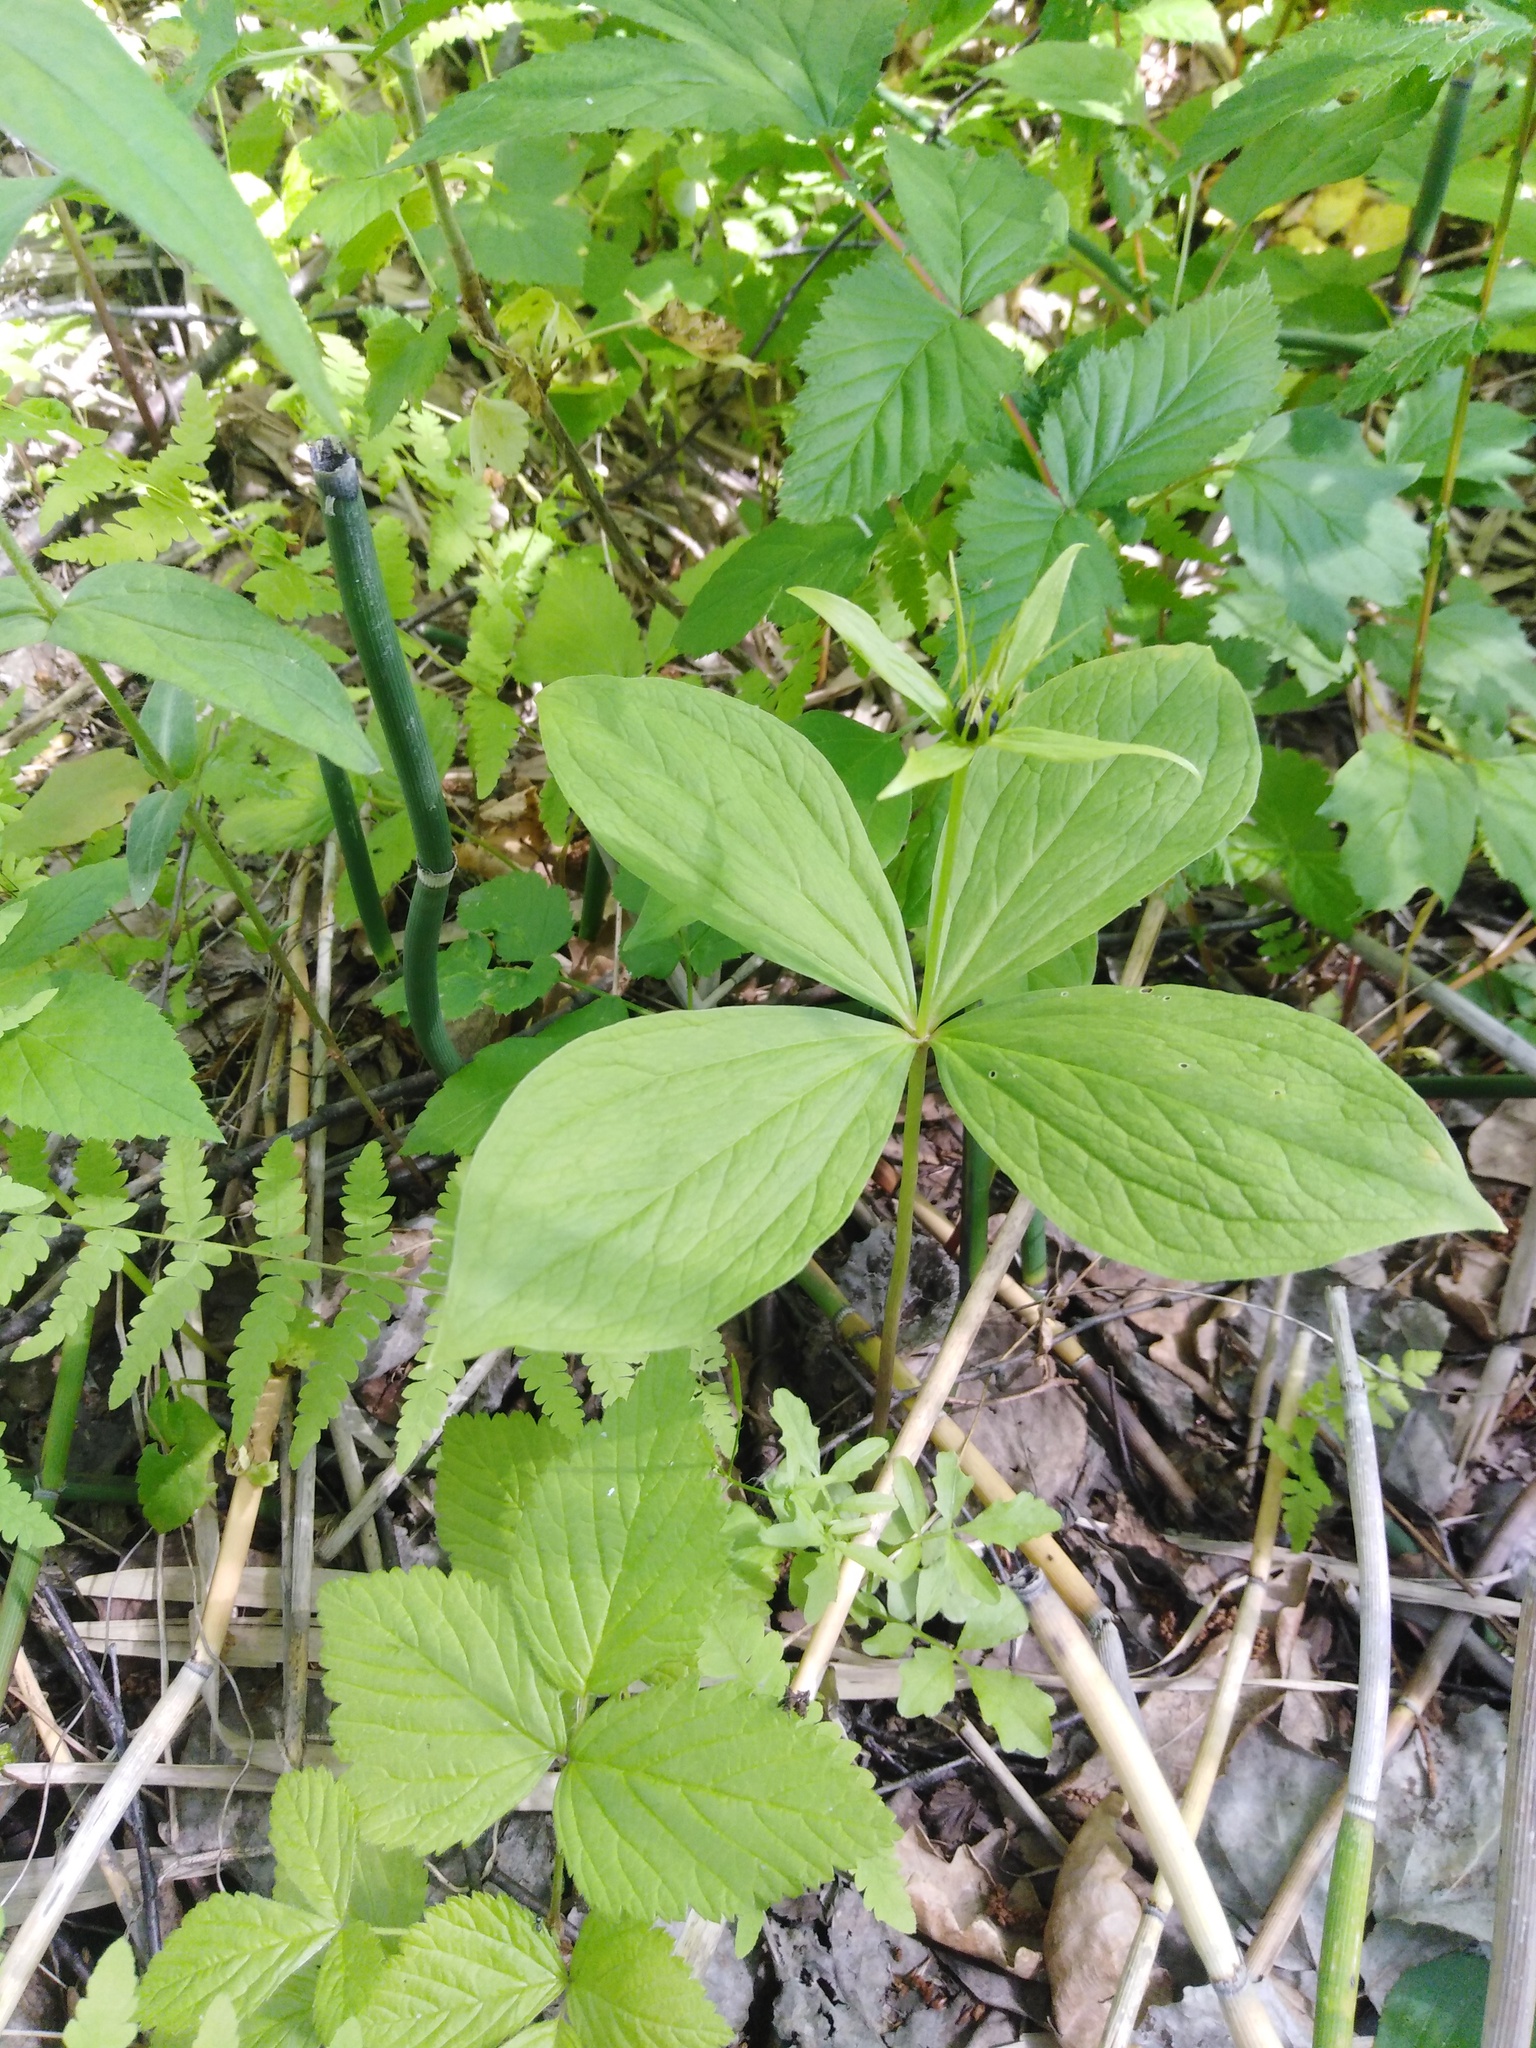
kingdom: Plantae
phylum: Tracheophyta
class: Liliopsida
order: Liliales
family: Melanthiaceae
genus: Paris
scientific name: Paris quadrifolia
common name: Herb-paris
